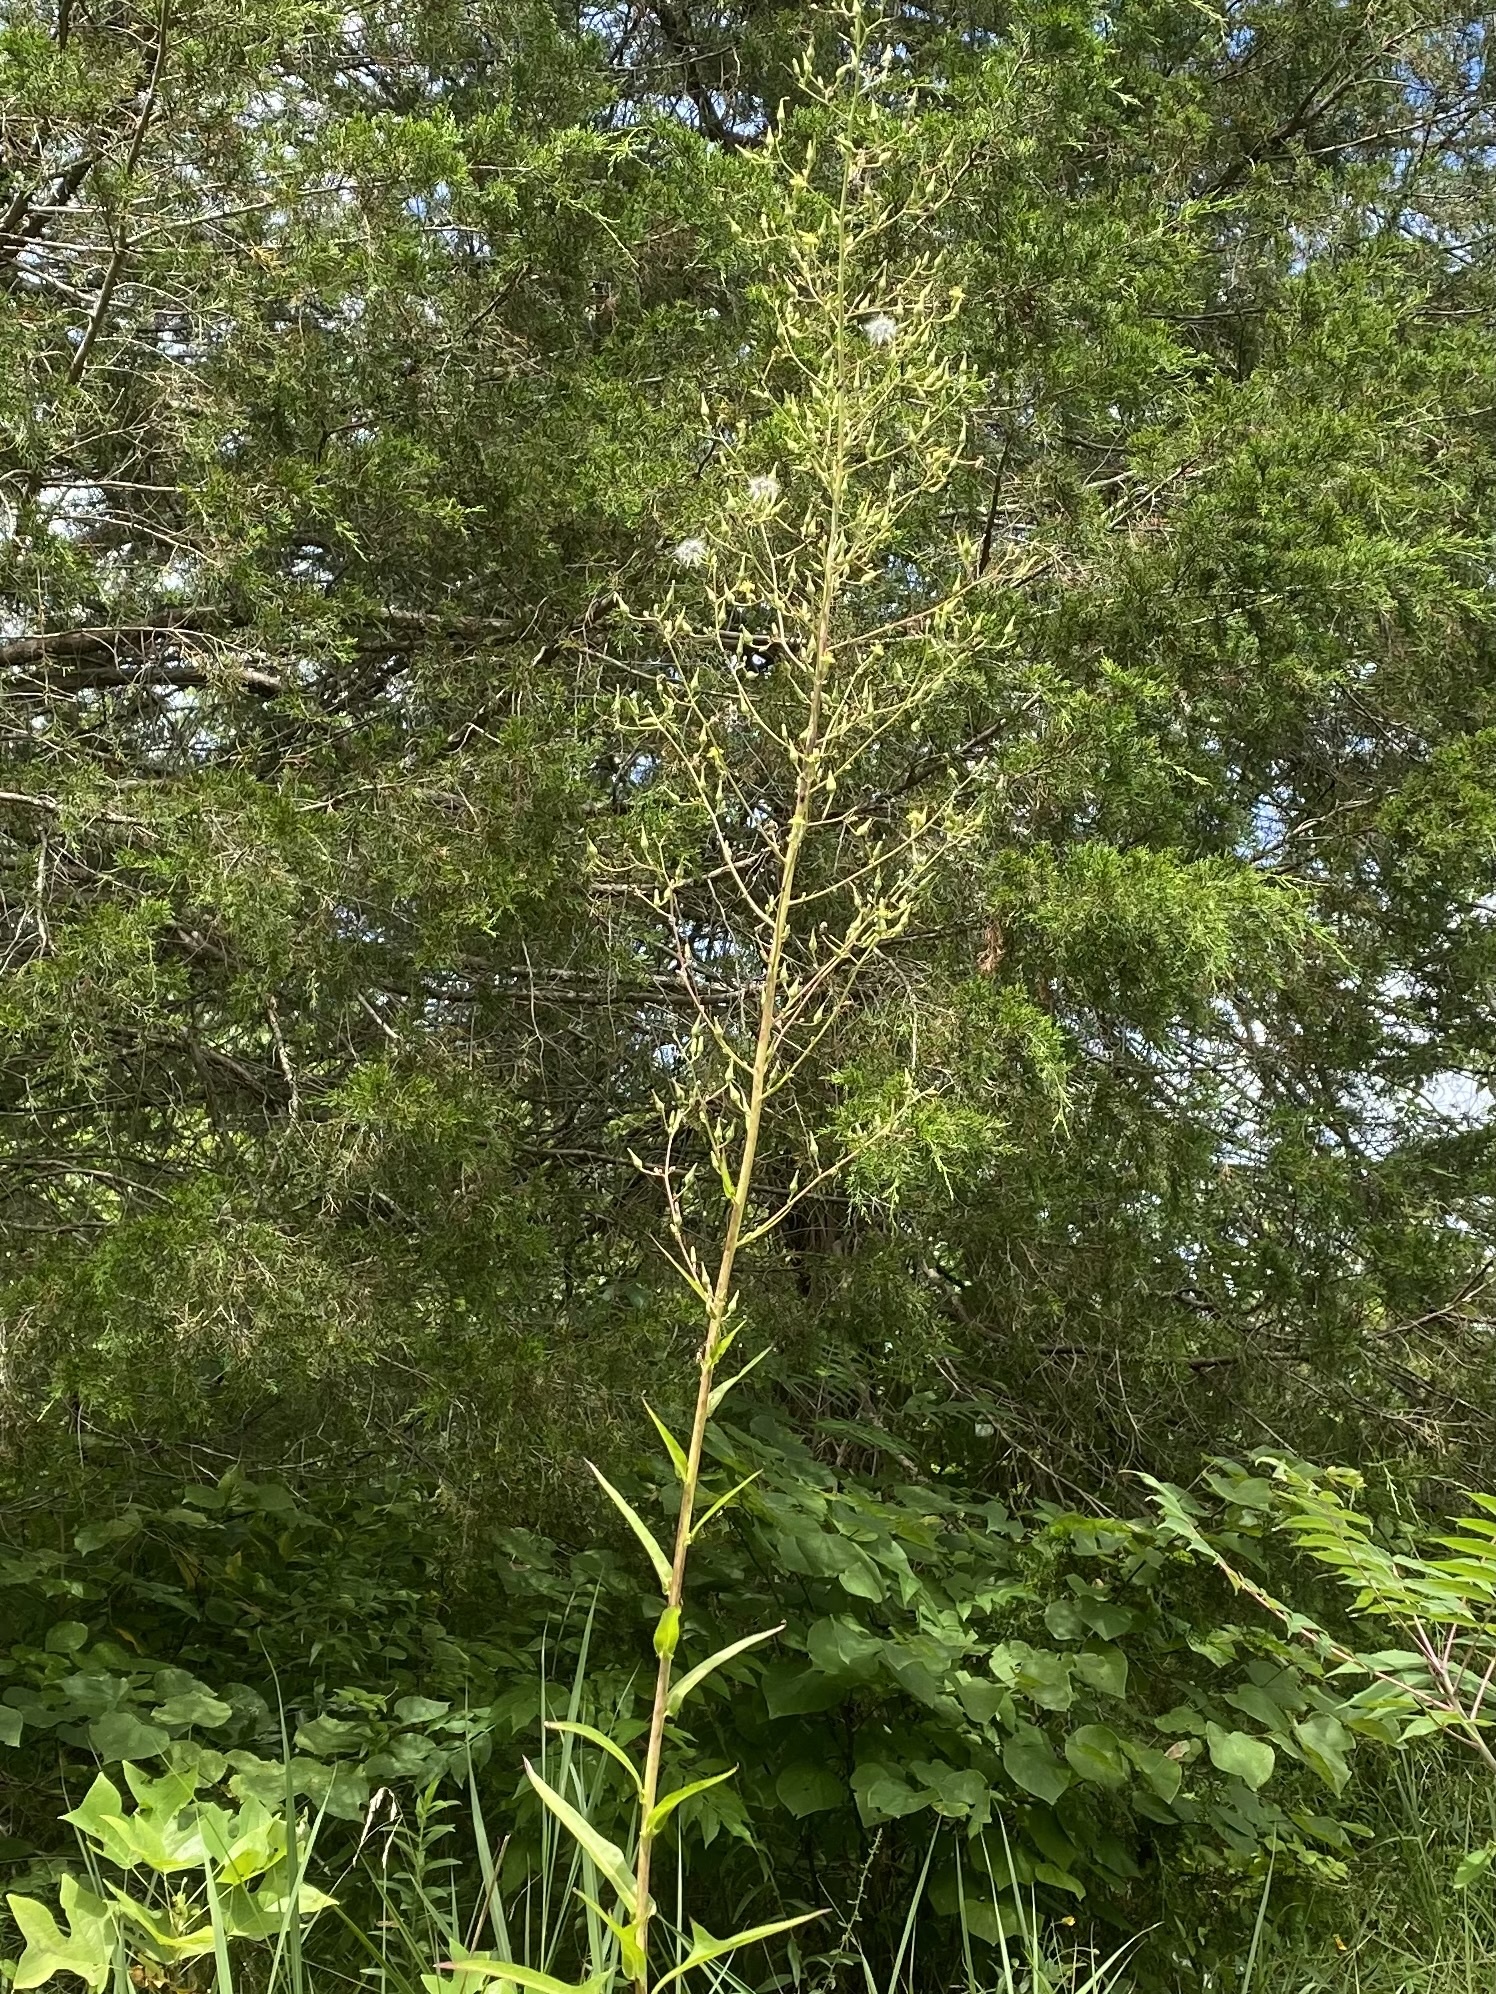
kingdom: Plantae
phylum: Tracheophyta
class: Magnoliopsida
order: Asterales
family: Asteraceae
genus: Lactuca
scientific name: Lactuca canadensis
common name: Canada lettuce
